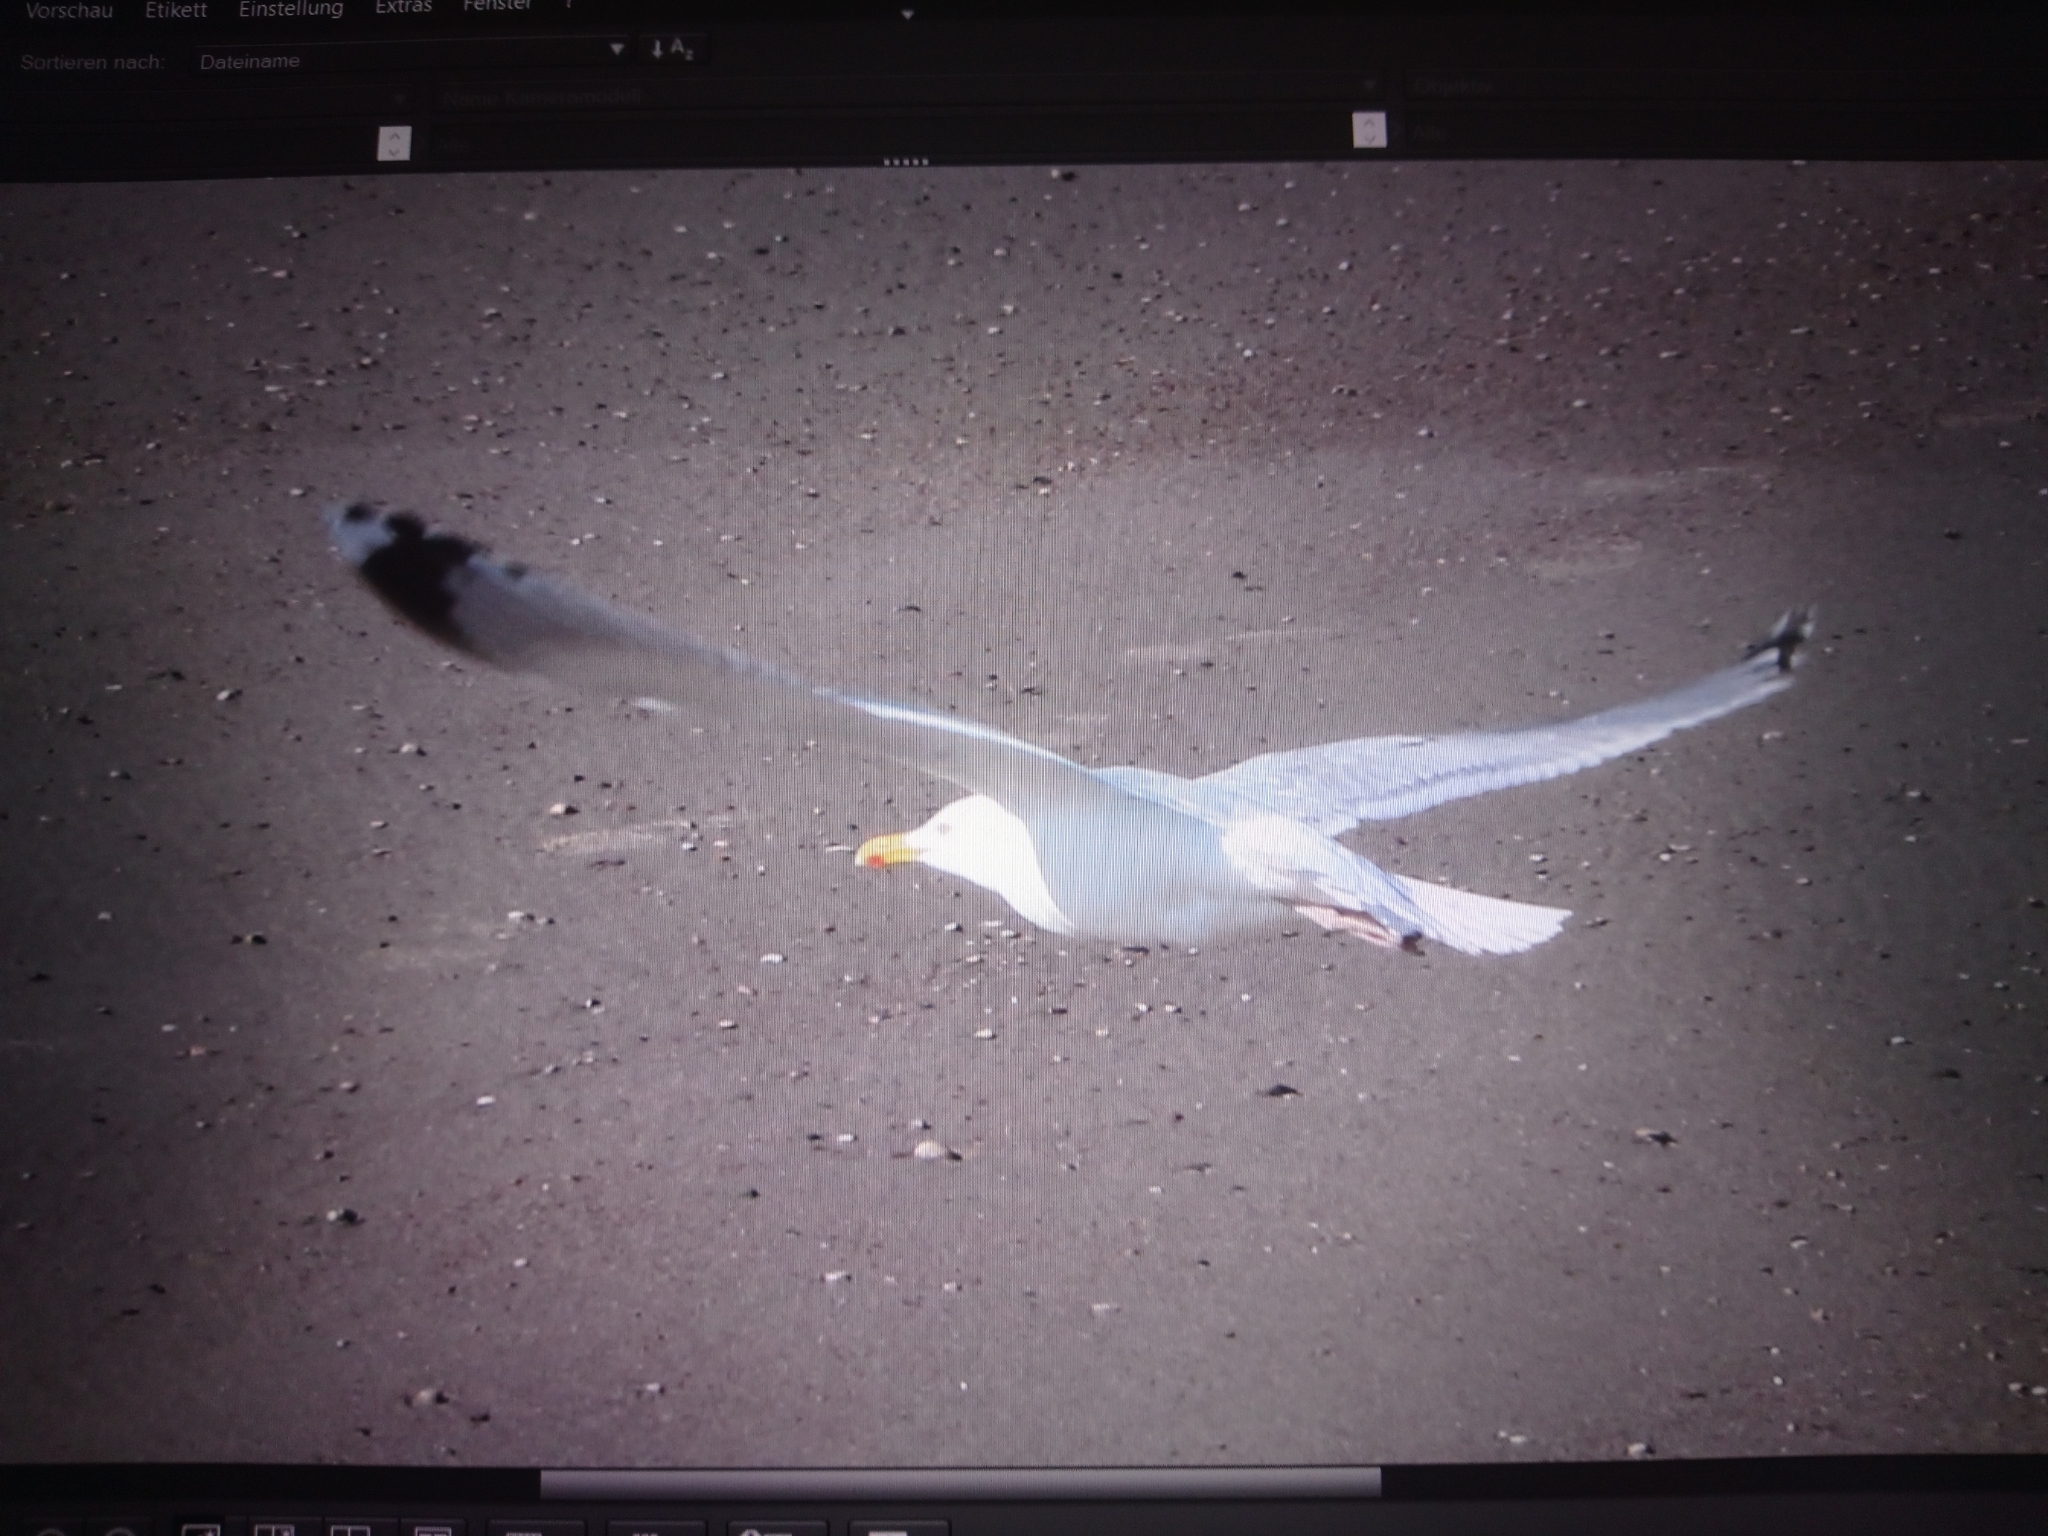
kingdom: Animalia
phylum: Chordata
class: Aves
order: Charadriiformes
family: Laridae
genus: Larus
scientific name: Larus argentatus
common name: Herring gull
